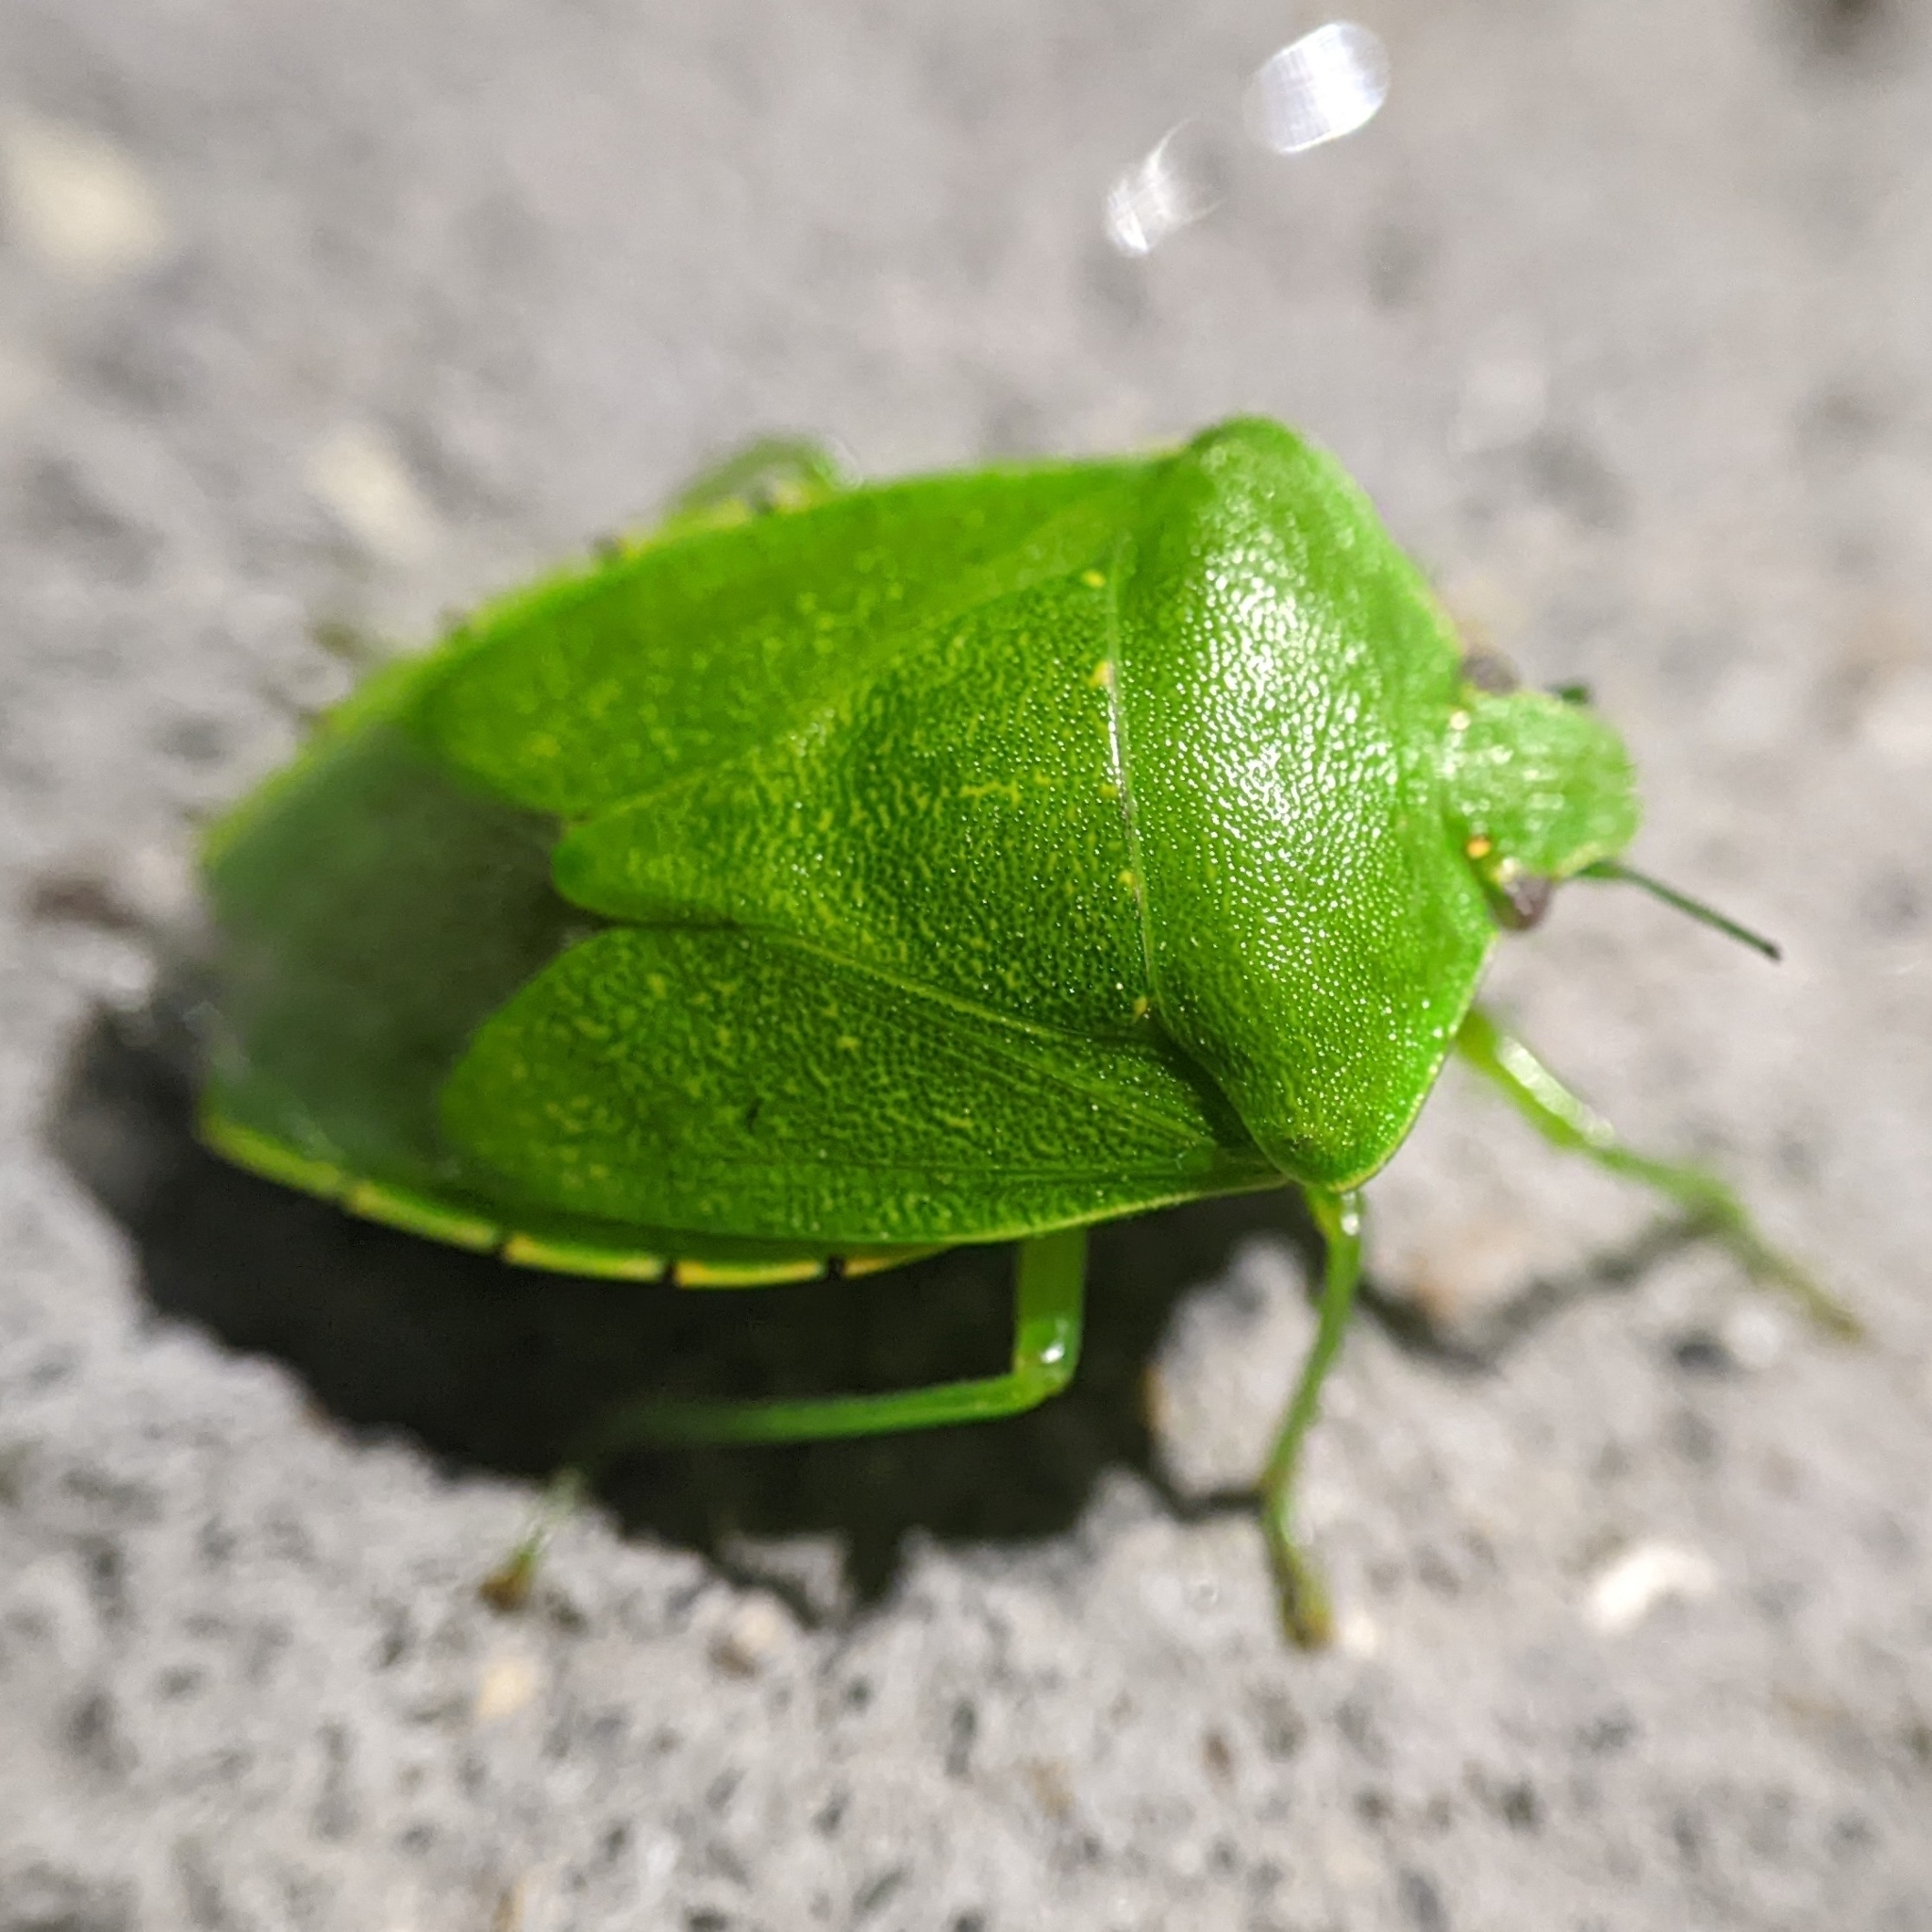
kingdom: Animalia
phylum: Arthropoda
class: Insecta
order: Hemiptera
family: Pentatomidae
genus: Chinavia
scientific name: Chinavia hilaris
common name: Green stink bug
